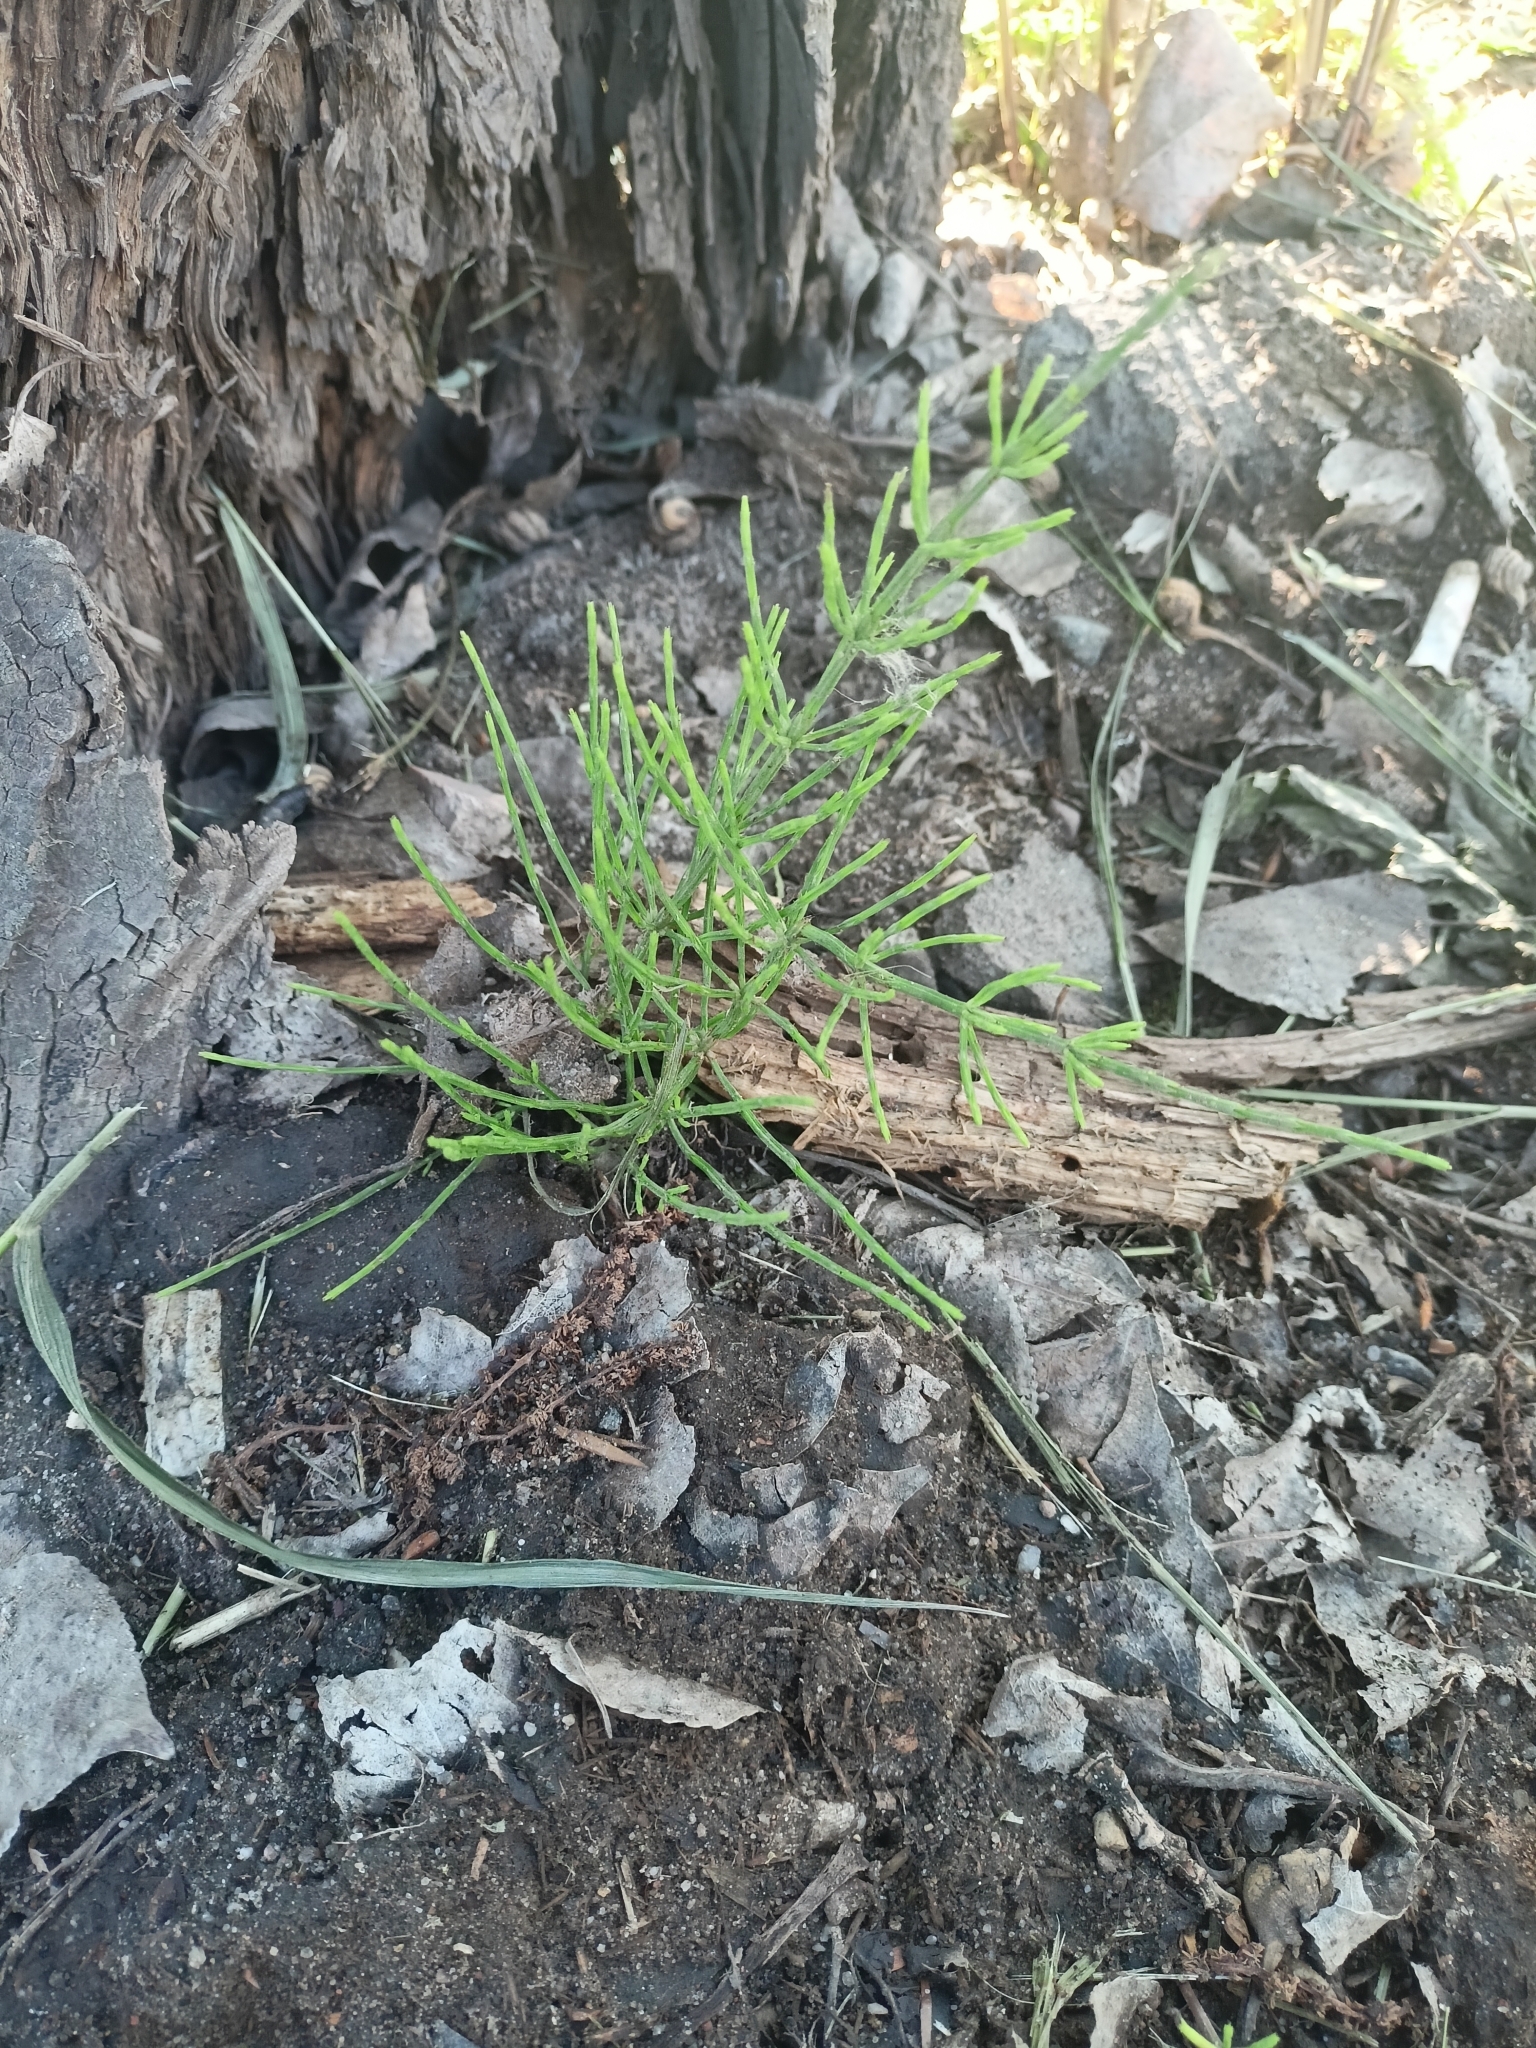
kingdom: Plantae
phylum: Tracheophyta
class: Polypodiopsida
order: Equisetales
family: Equisetaceae
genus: Equisetum
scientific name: Equisetum arvense
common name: Field horsetail
